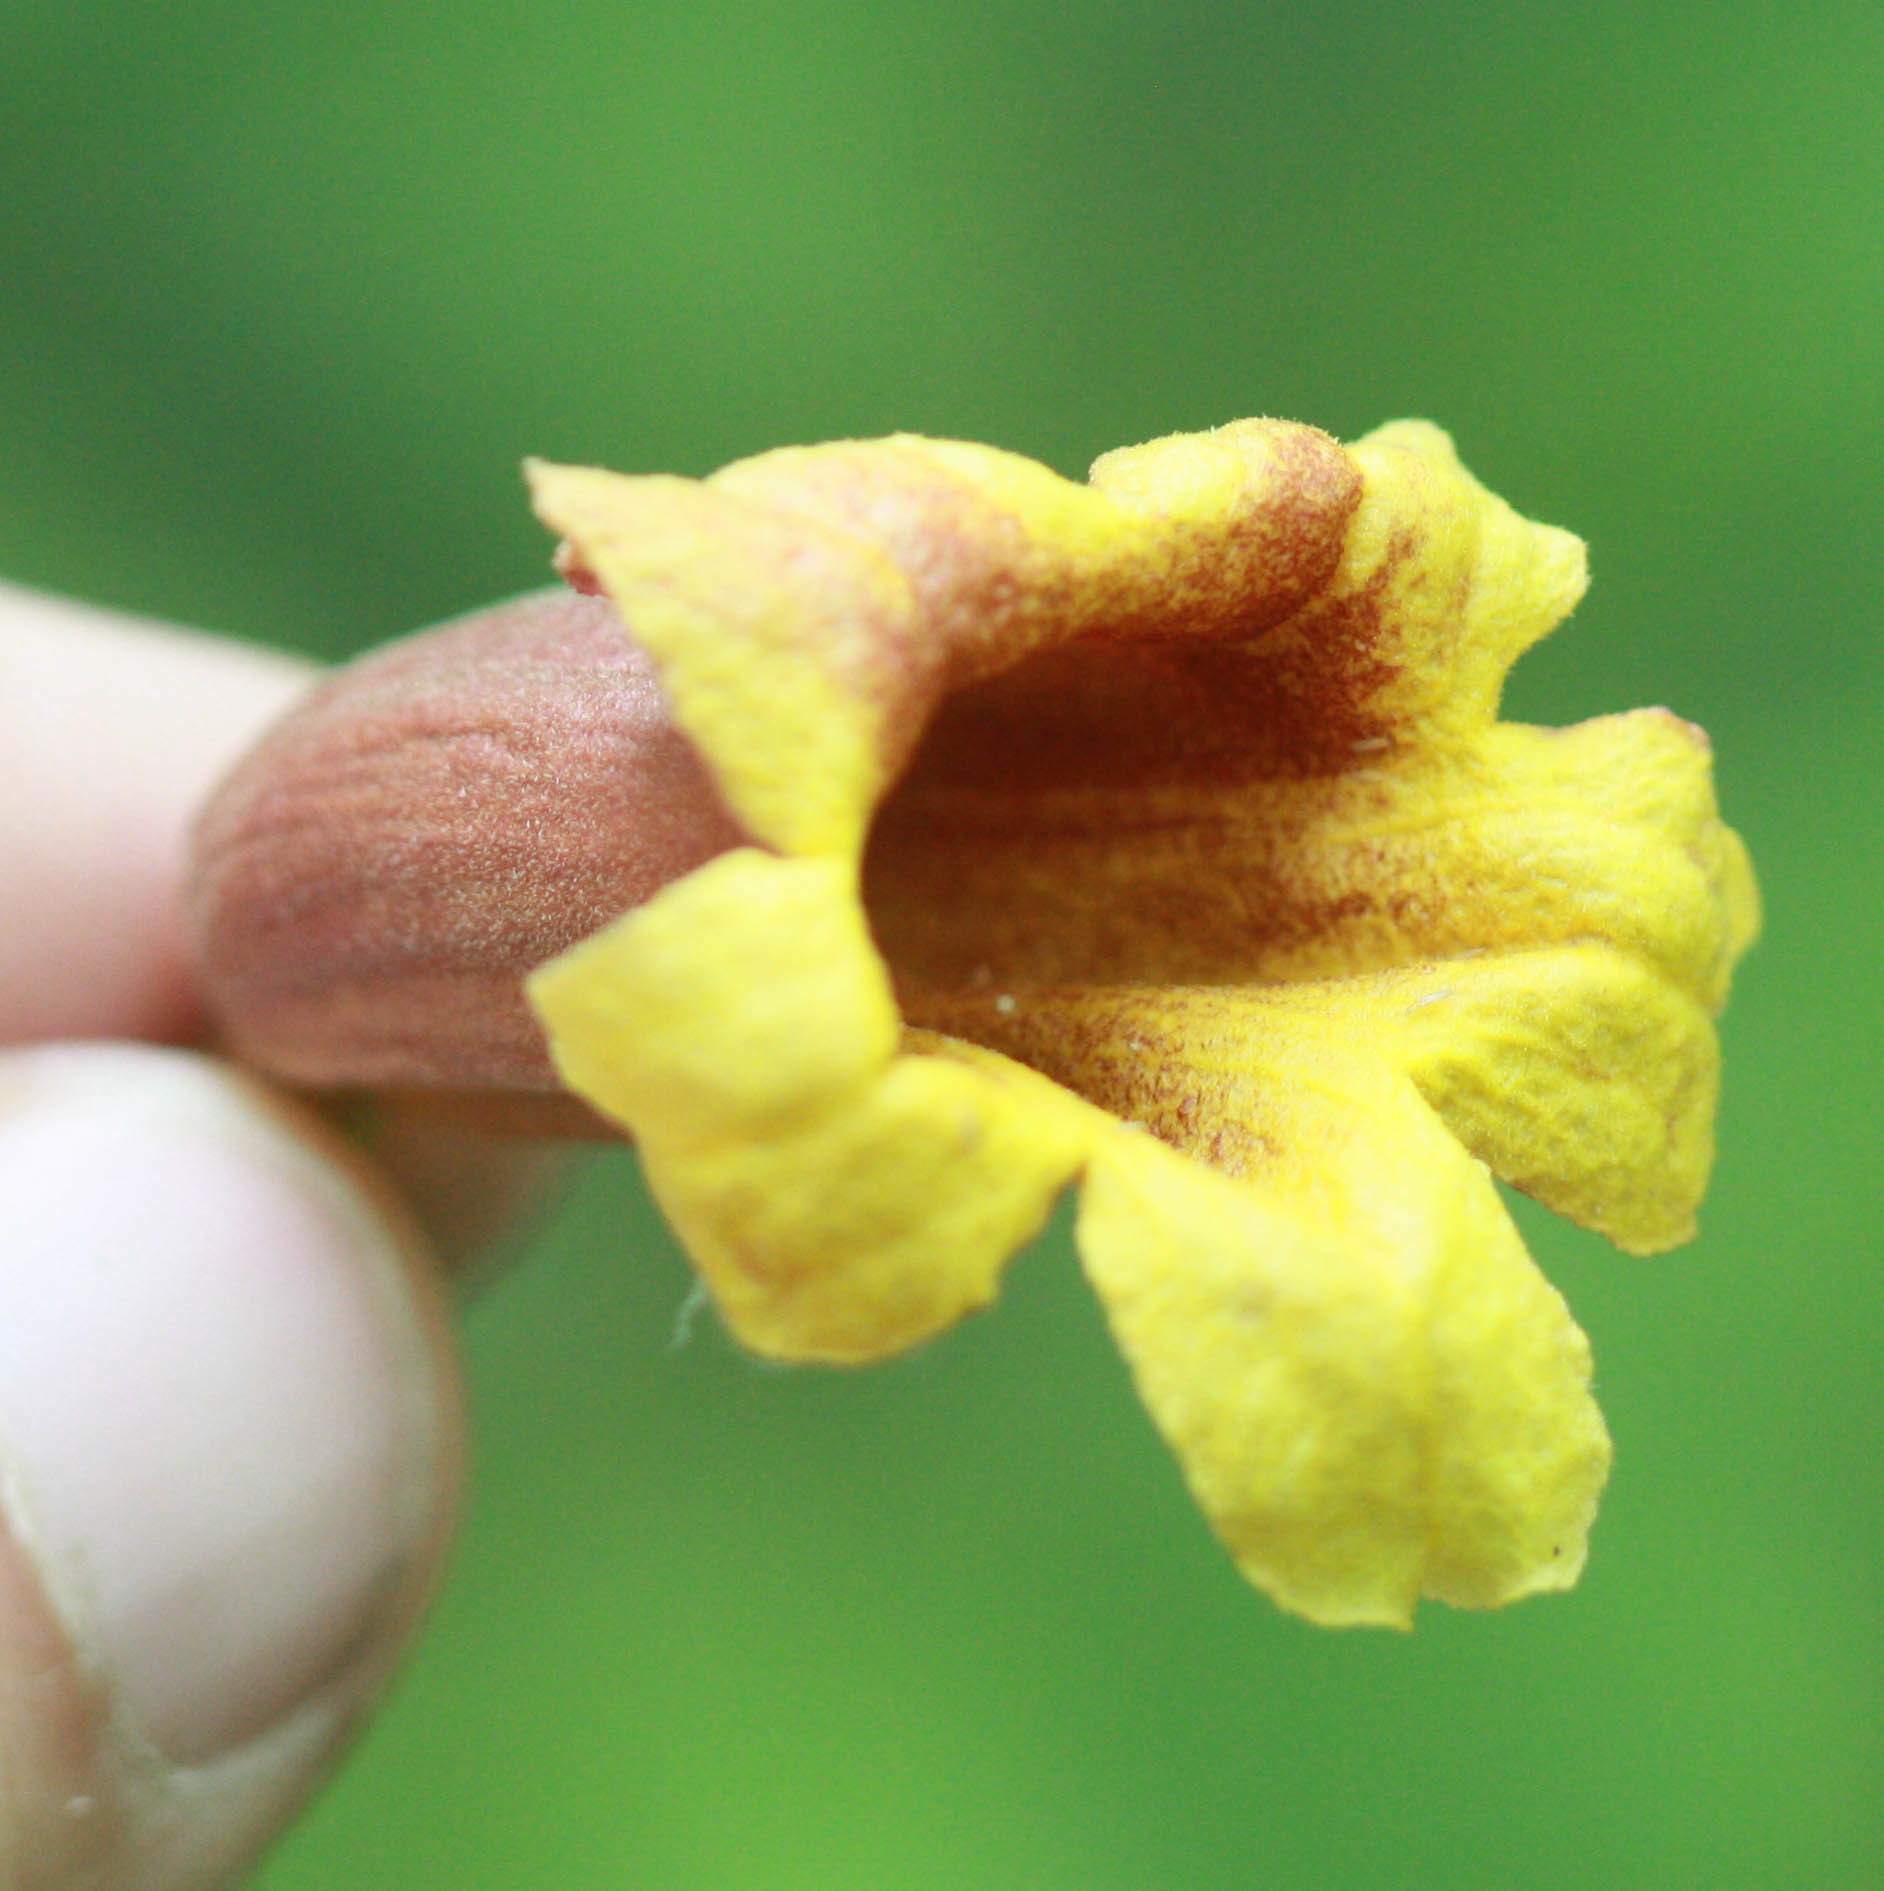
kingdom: Plantae
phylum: Tracheophyta
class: Magnoliopsida
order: Lamiales
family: Bignoniaceae
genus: Bignonia
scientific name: Bignonia capreolata
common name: Crossvine
